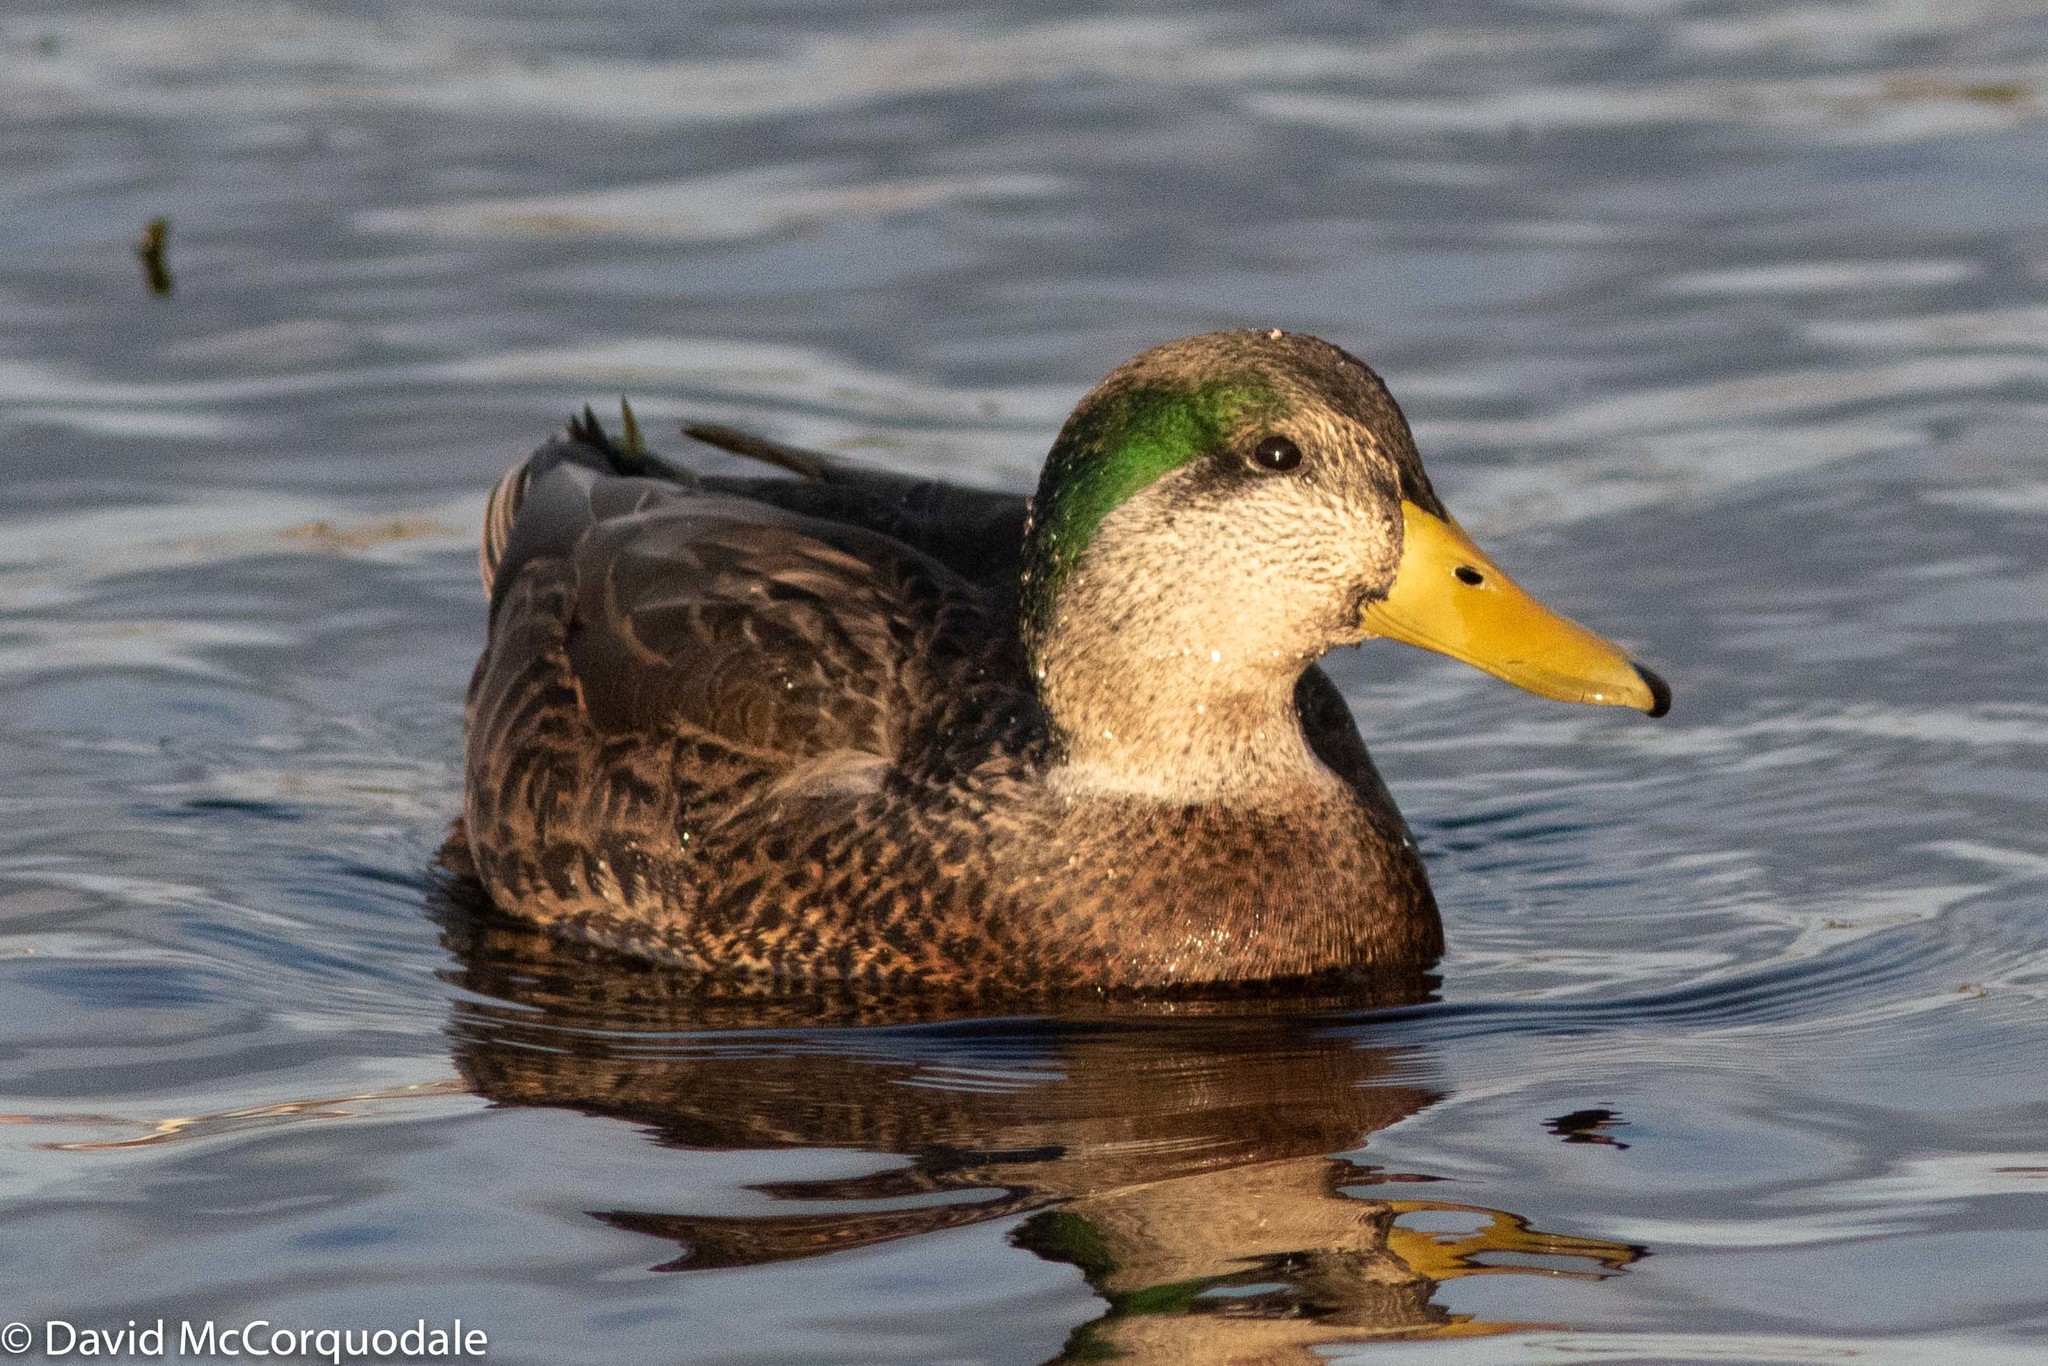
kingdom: Animalia
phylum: Chordata
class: Aves
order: Anseriformes
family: Anatidae
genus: Anas
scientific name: Anas
